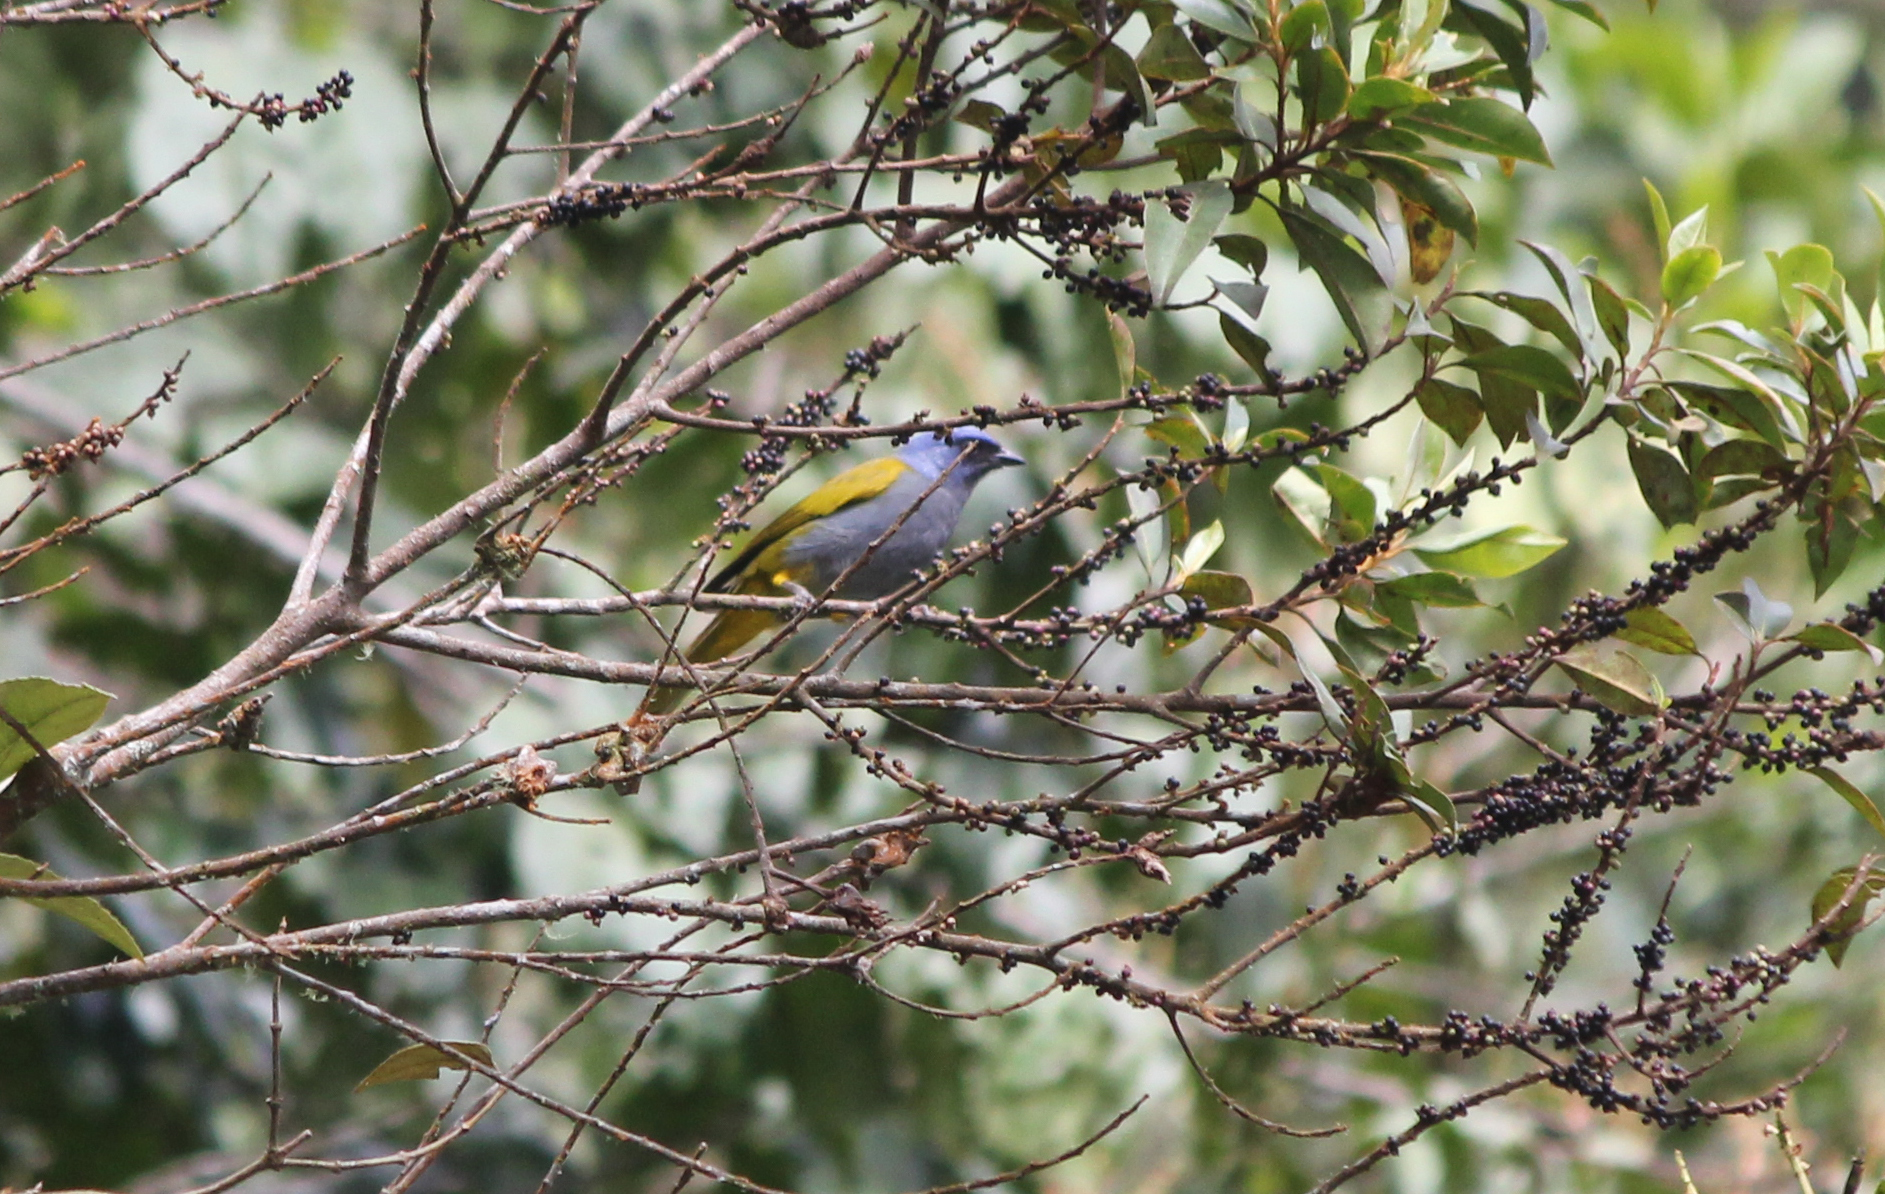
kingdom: Animalia
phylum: Chordata
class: Aves
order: Passeriformes
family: Thraupidae
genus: Sporathraupis
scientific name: Sporathraupis cyanocephala
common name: Blue-capped tanager
